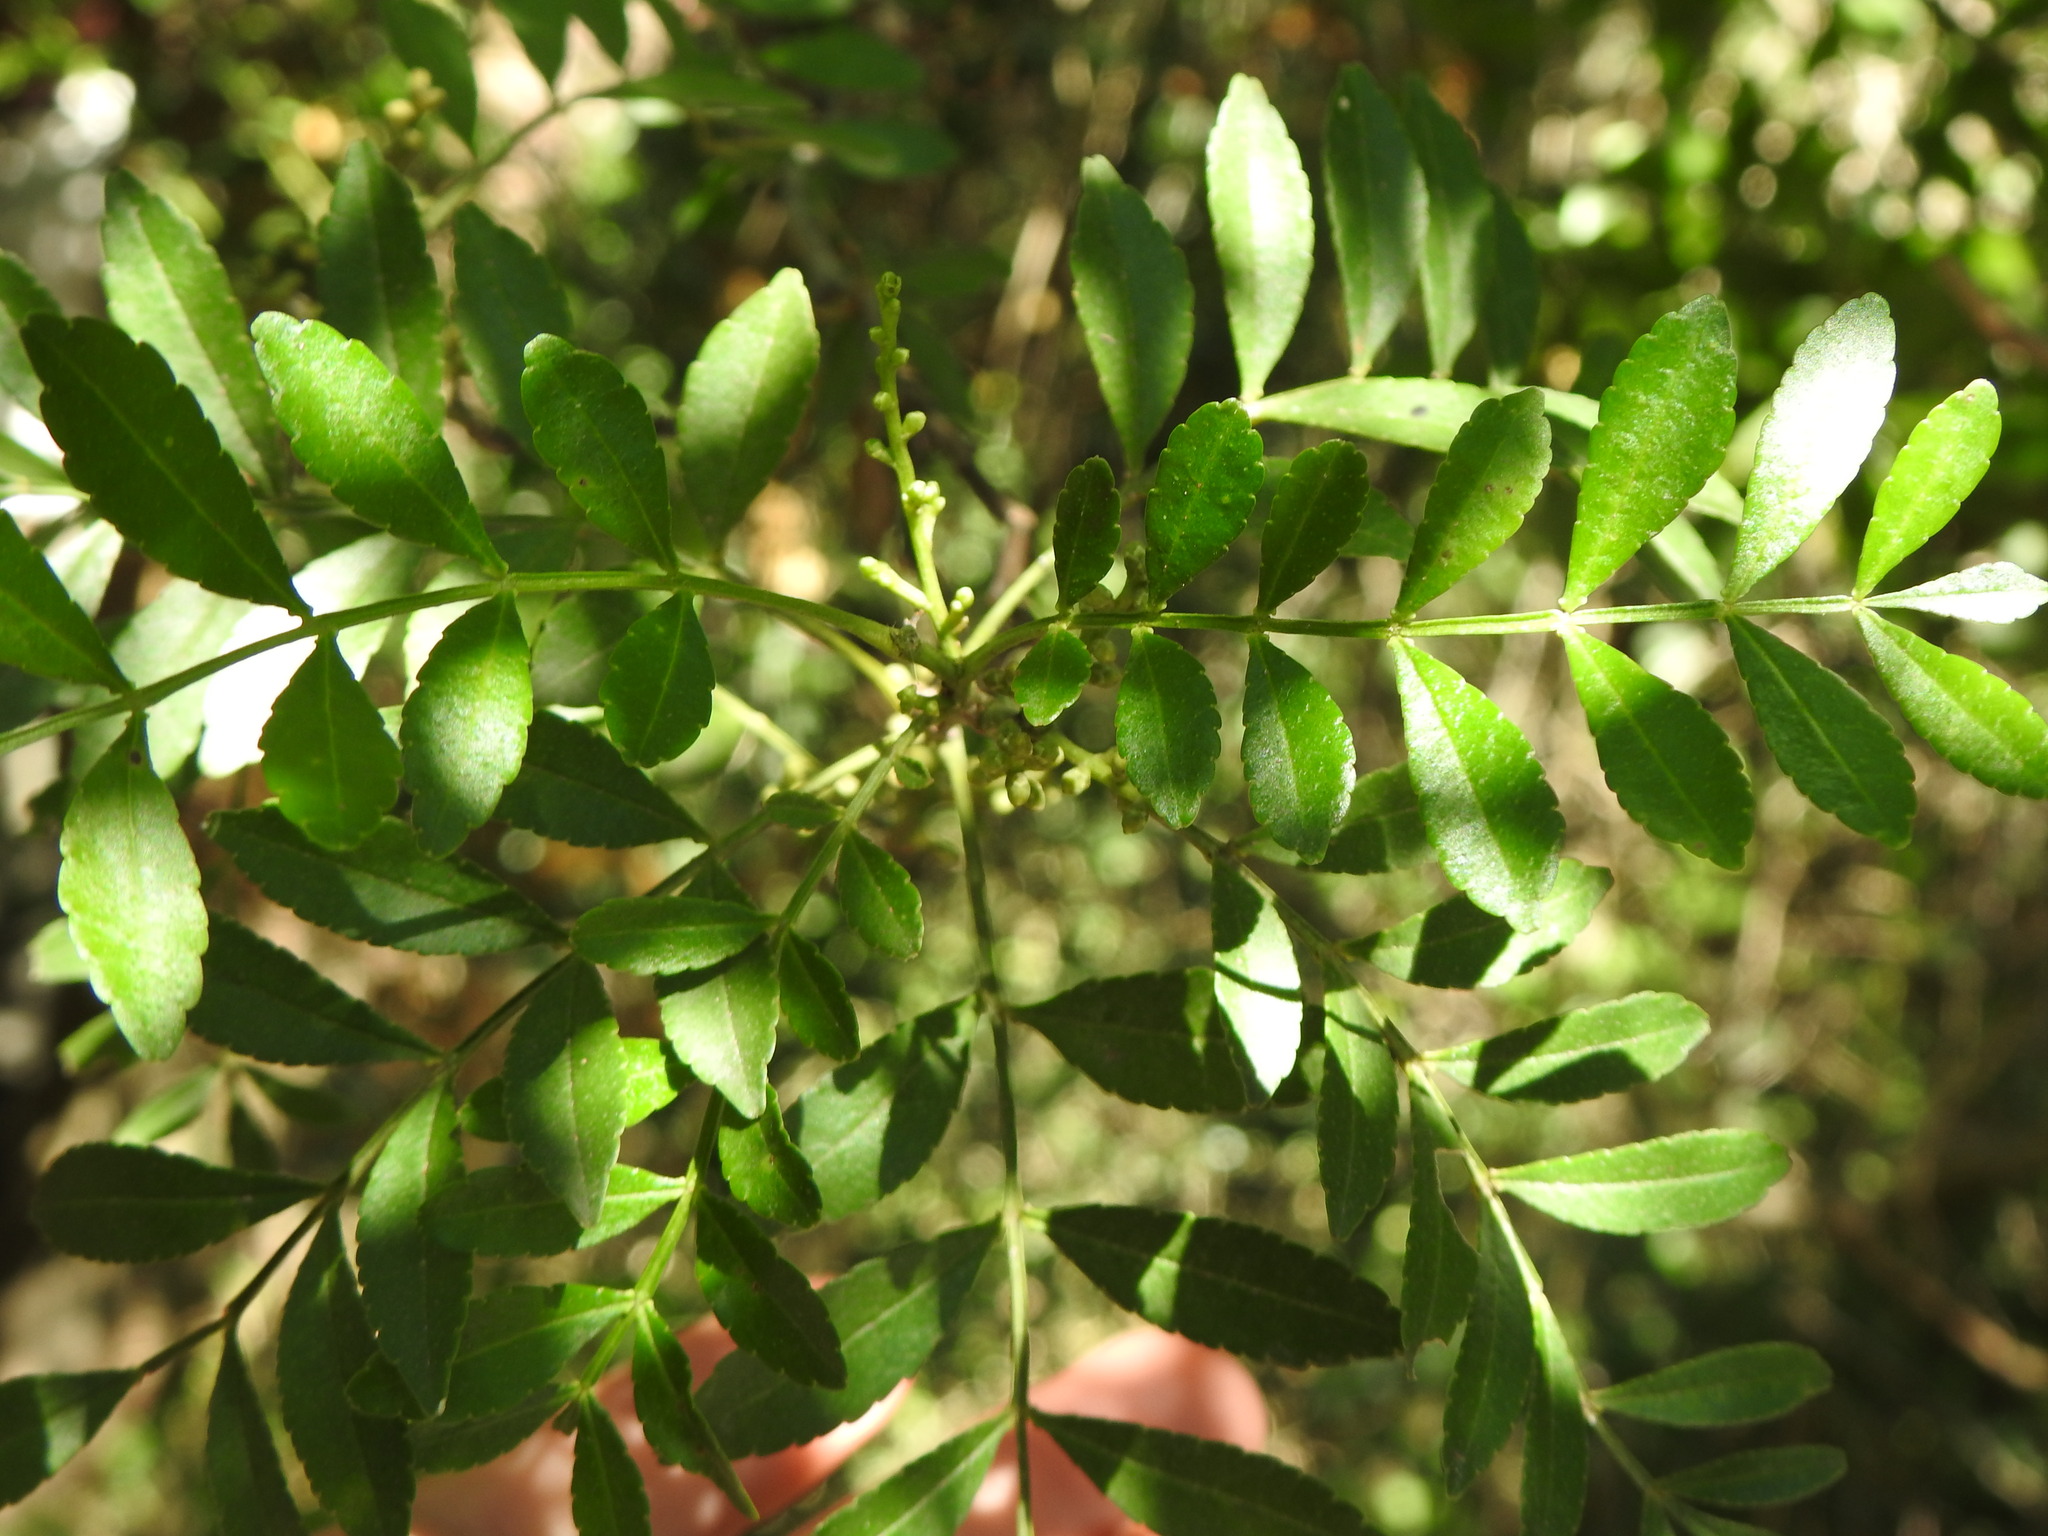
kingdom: Plantae
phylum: Tracheophyta
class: Magnoliopsida
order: Sapindales
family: Rutaceae
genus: Zanthoxylum
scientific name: Zanthoxylum fagara
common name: Lime prickly-ash
